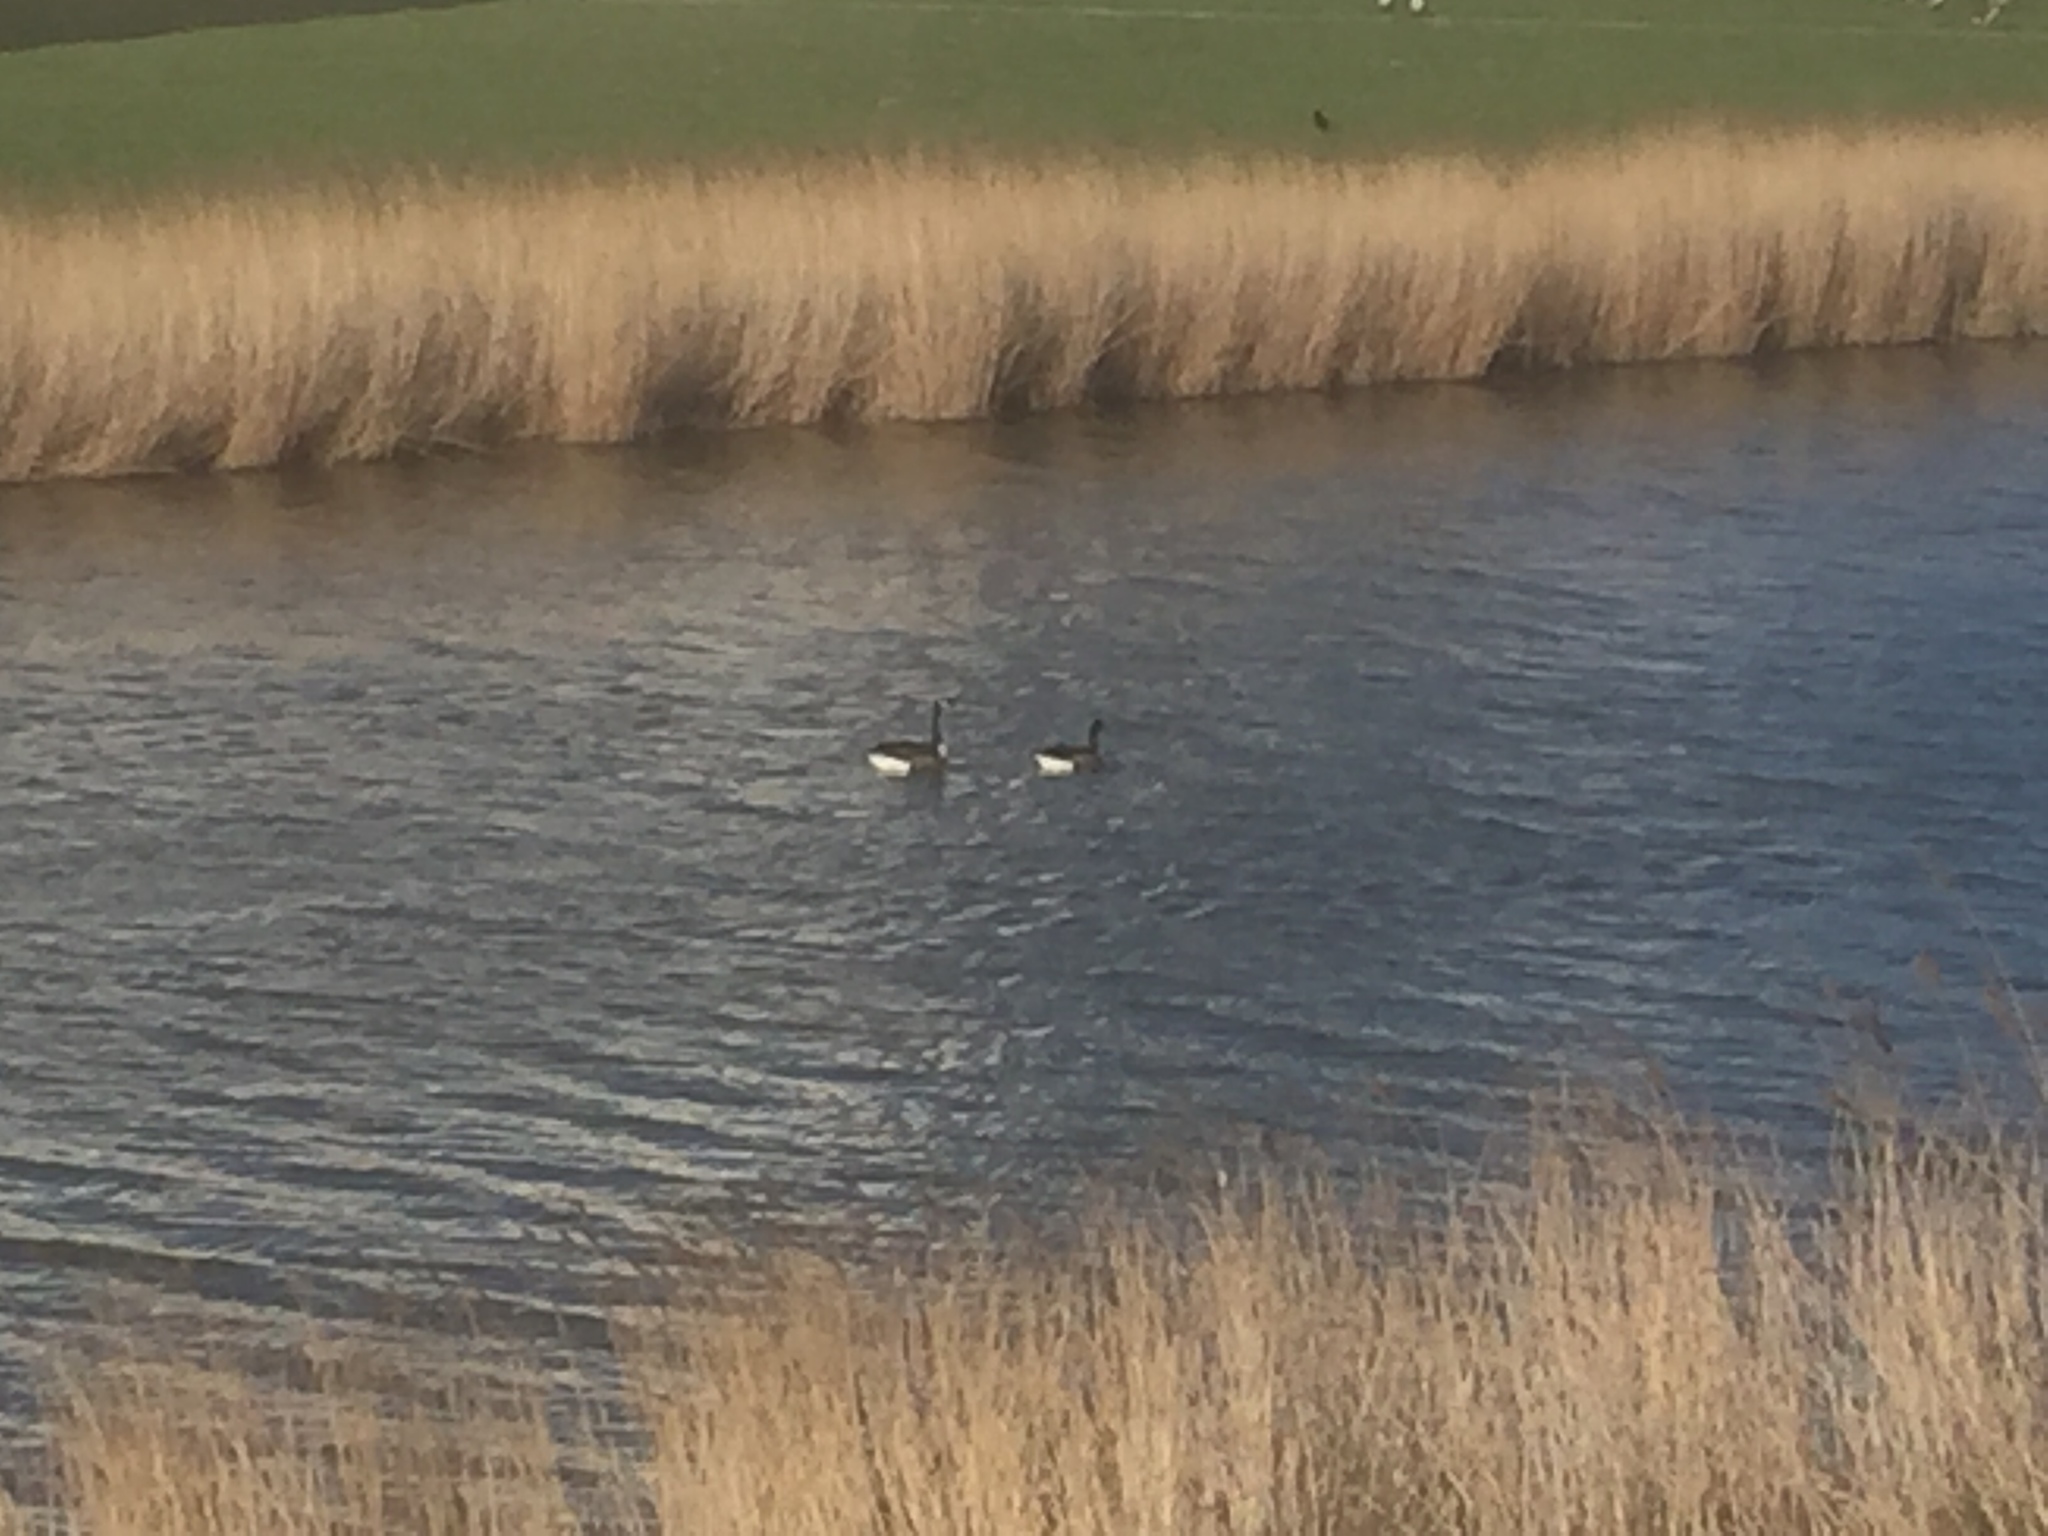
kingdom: Animalia
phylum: Chordata
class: Aves
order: Anseriformes
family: Anatidae
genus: Branta
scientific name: Branta canadensis
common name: Canada goose
